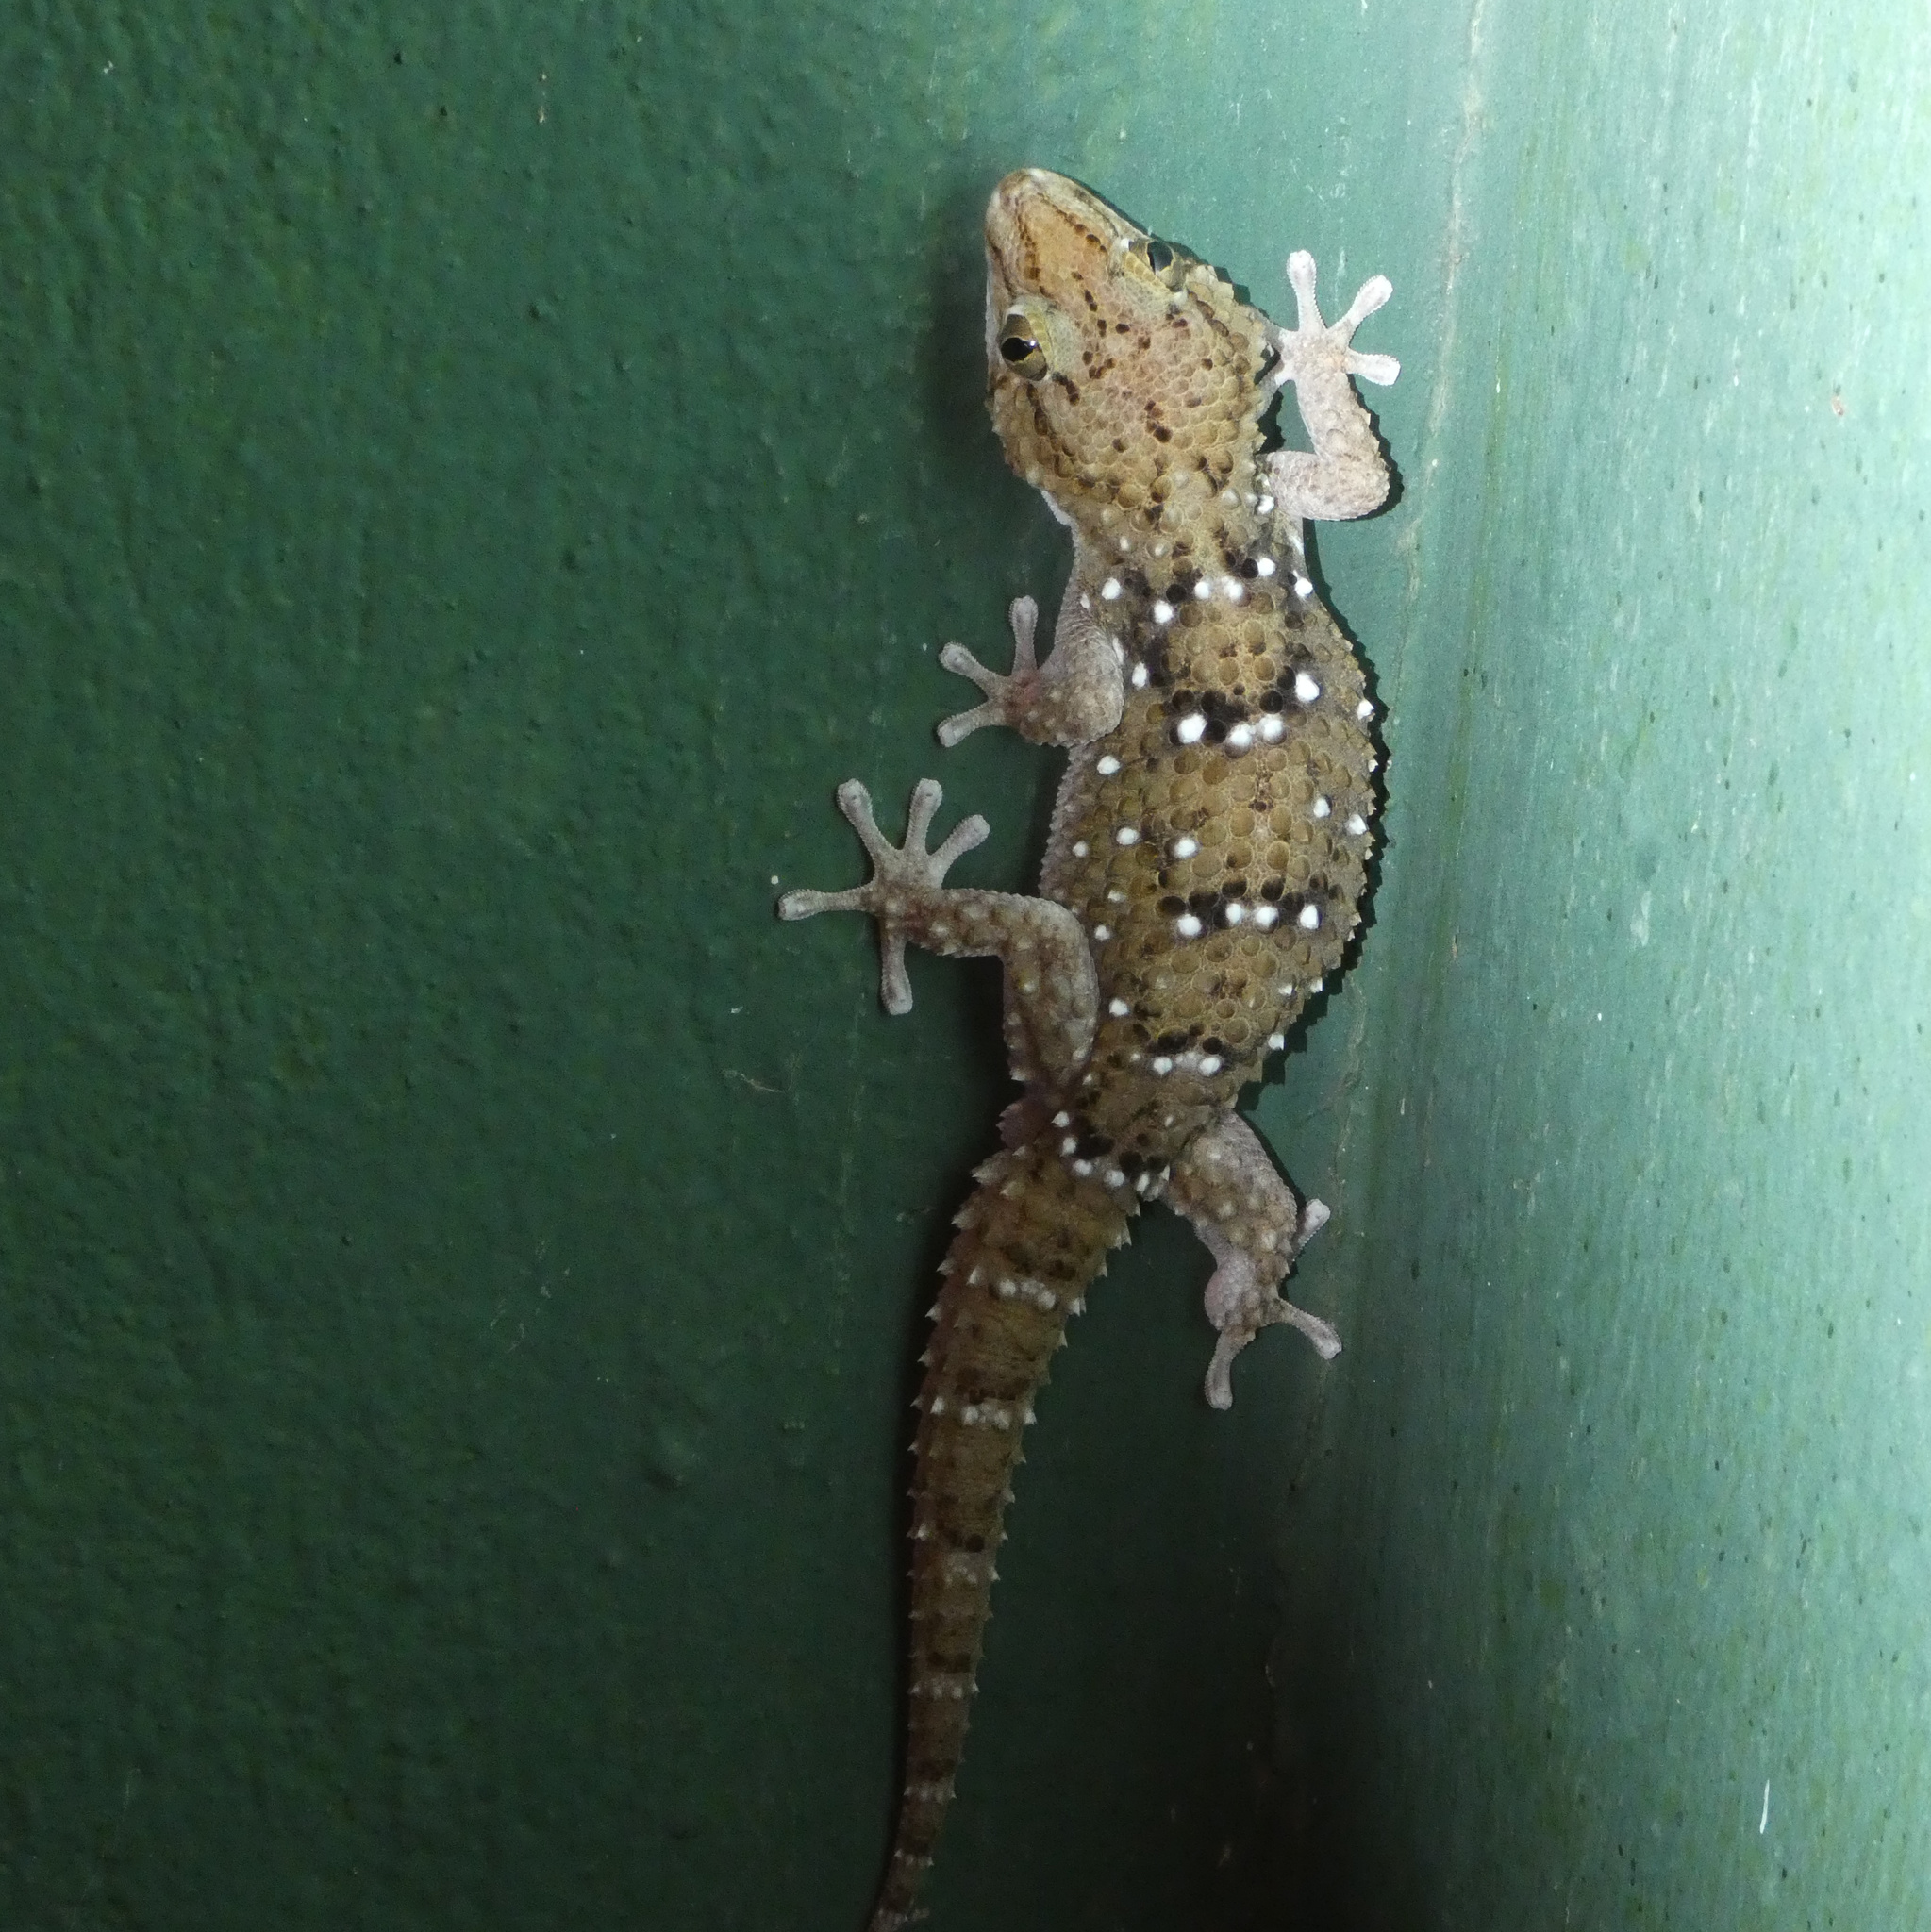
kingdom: Animalia
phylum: Chordata
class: Squamata
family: Gekkonidae
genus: Chondrodactylus
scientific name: Chondrodactylus turneri
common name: Turner’s gecko
